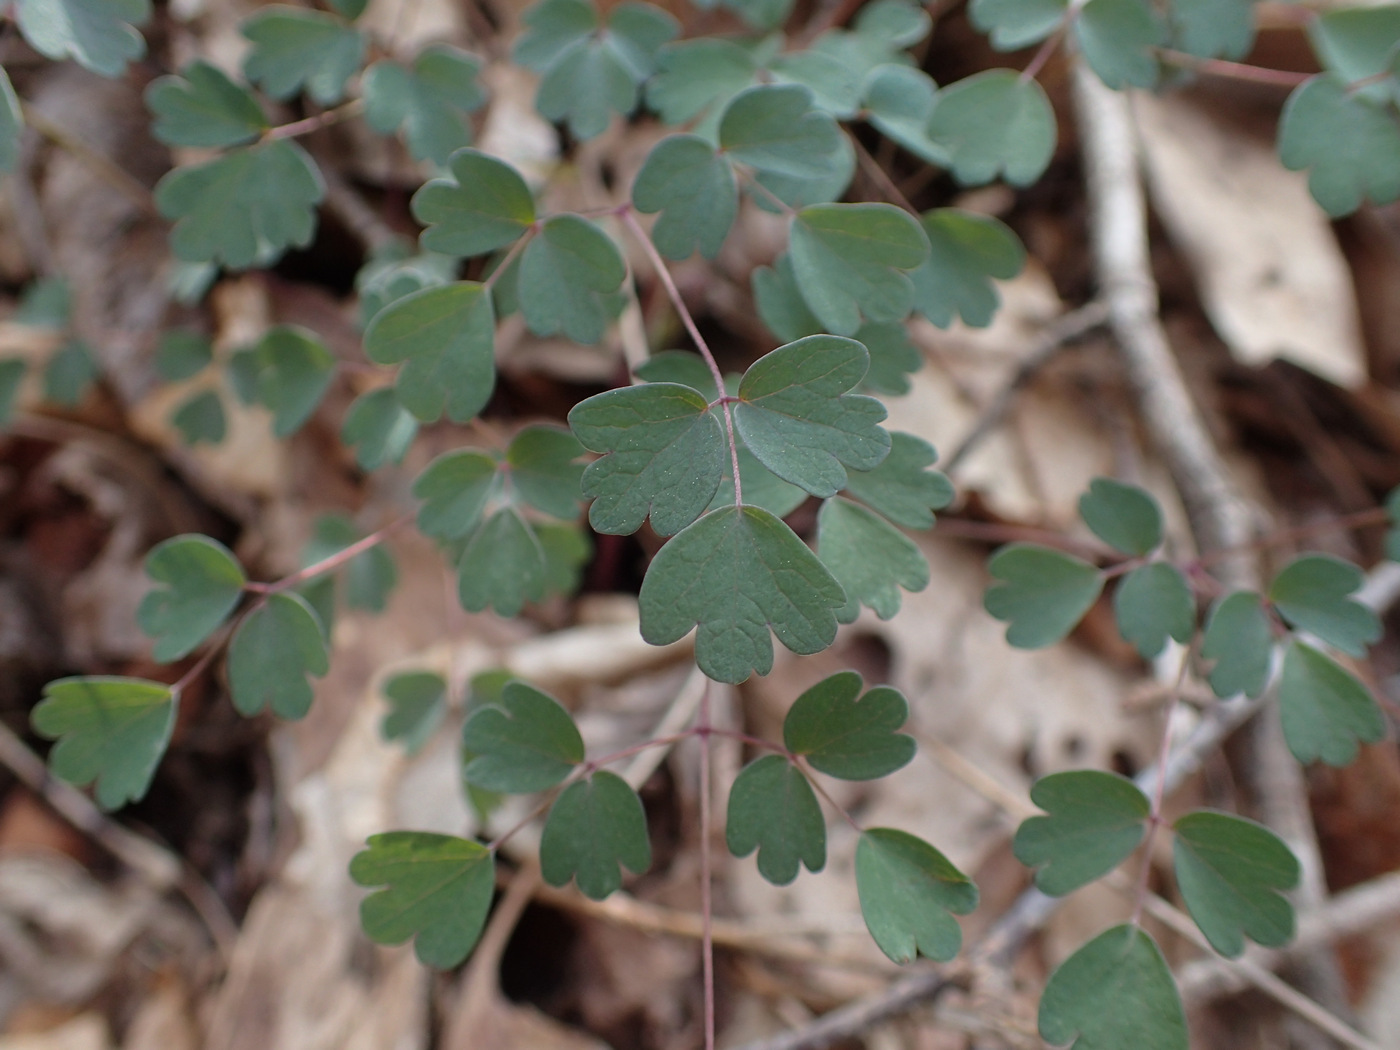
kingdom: Plantae
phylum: Tracheophyta
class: Magnoliopsida
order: Ranunculales
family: Ranunculaceae
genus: Thalictrum
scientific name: Thalictrum dioicum
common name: Early meadow-rue
